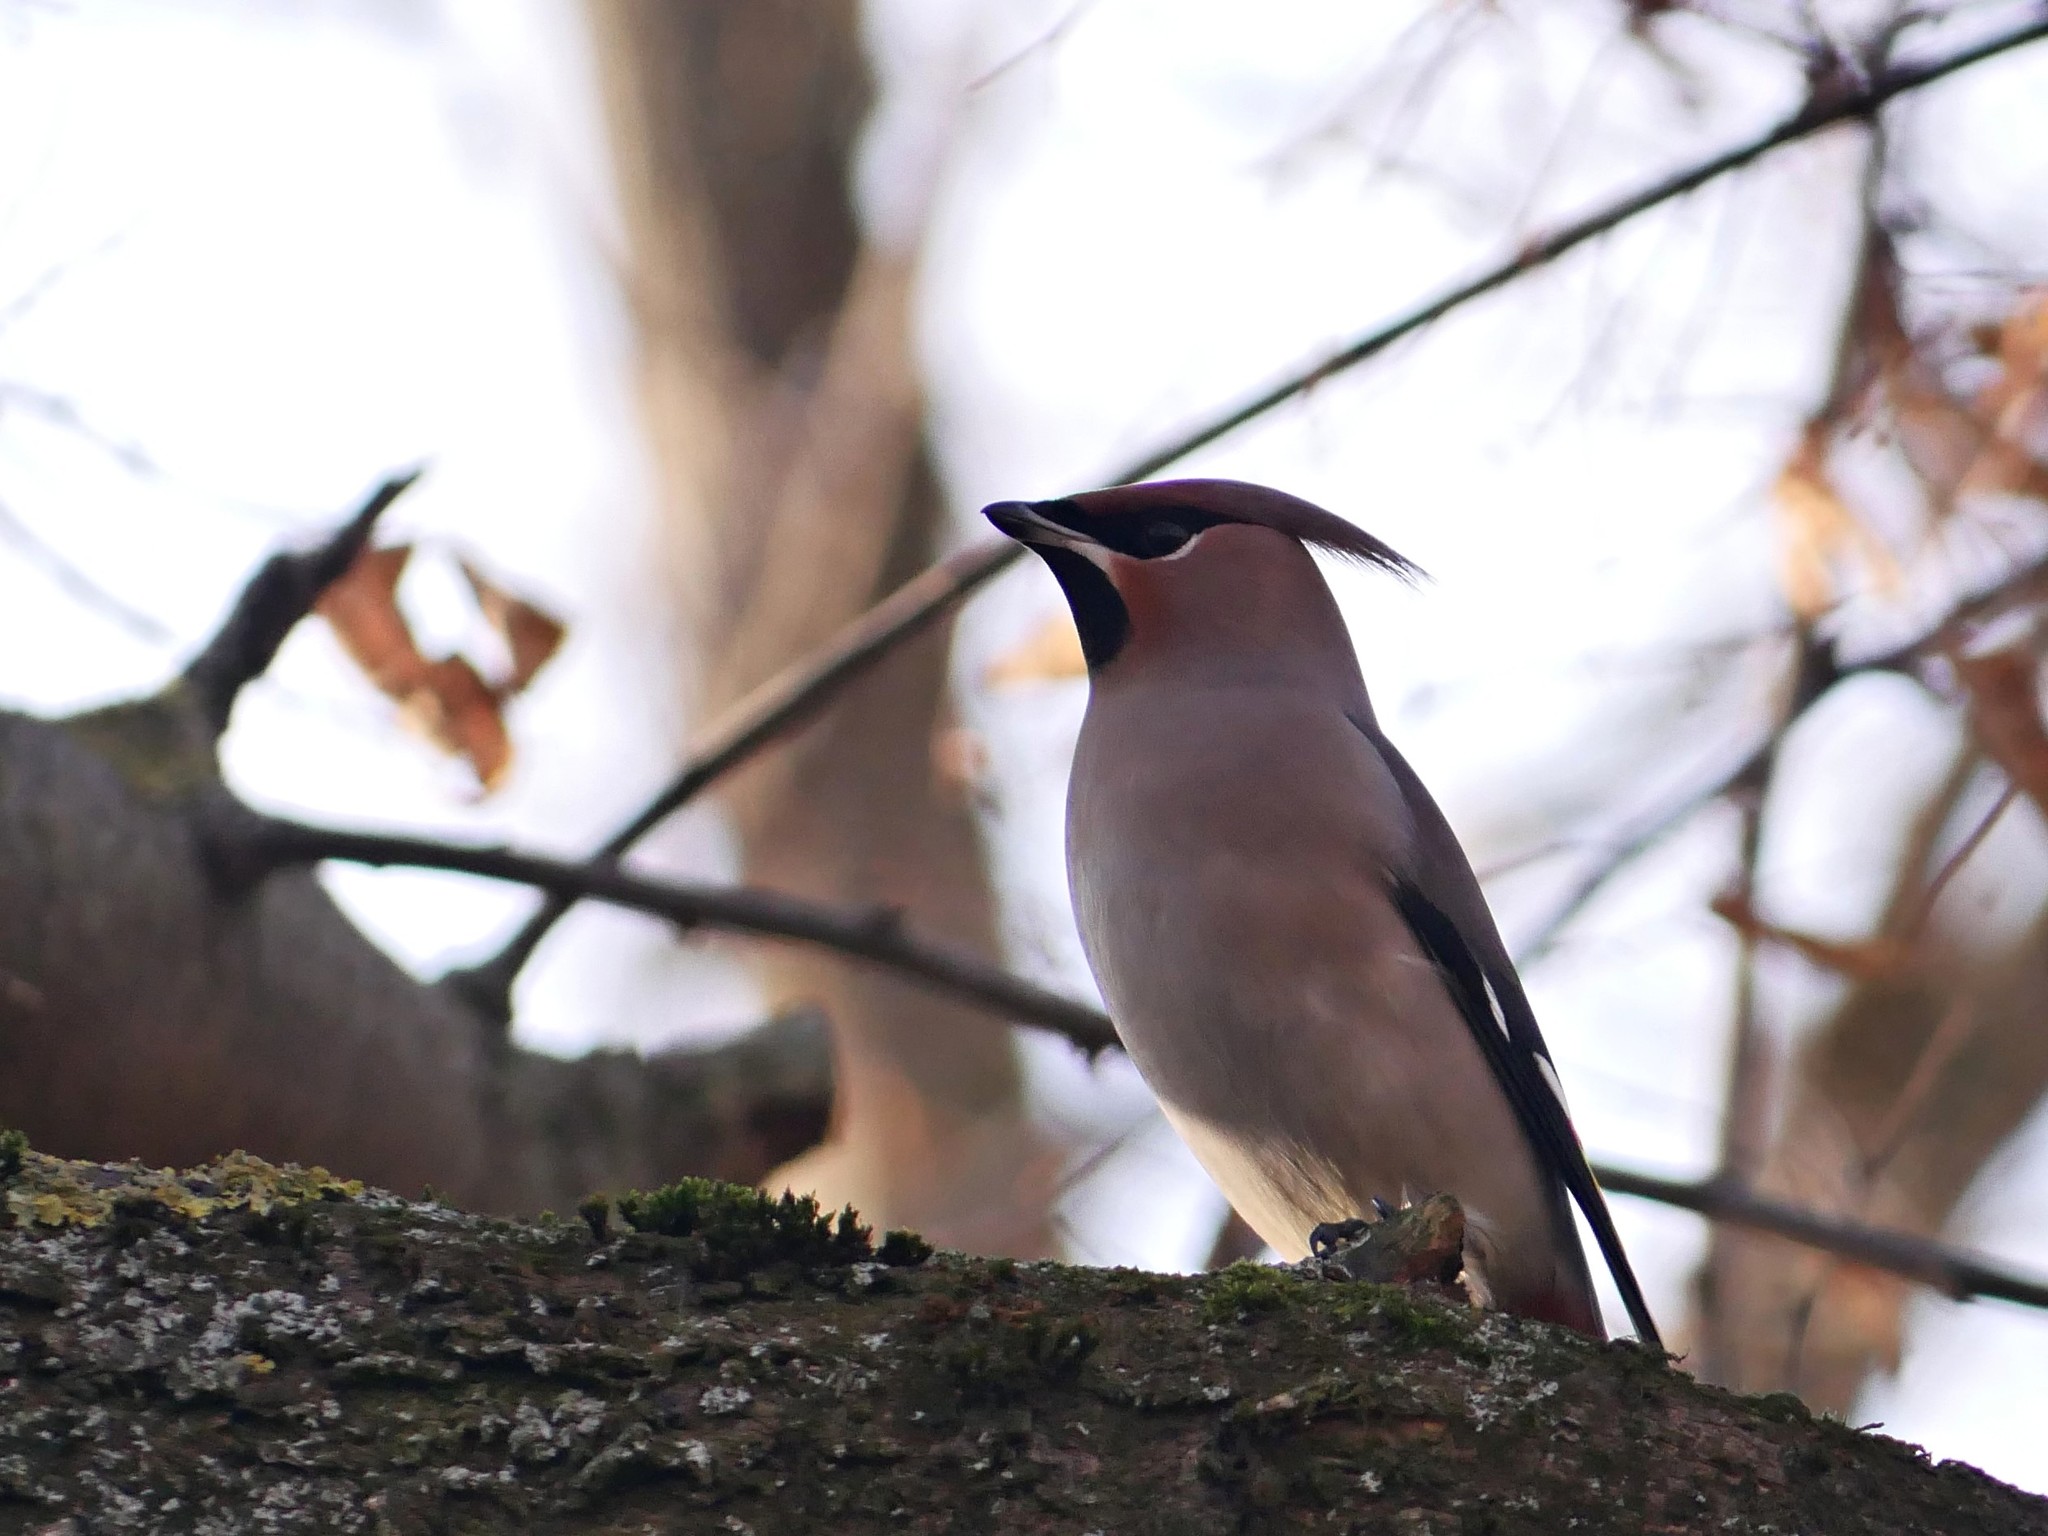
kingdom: Animalia
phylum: Chordata
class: Aves
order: Passeriformes
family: Bombycillidae
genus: Bombycilla
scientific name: Bombycilla garrulus
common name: Bohemian waxwing
